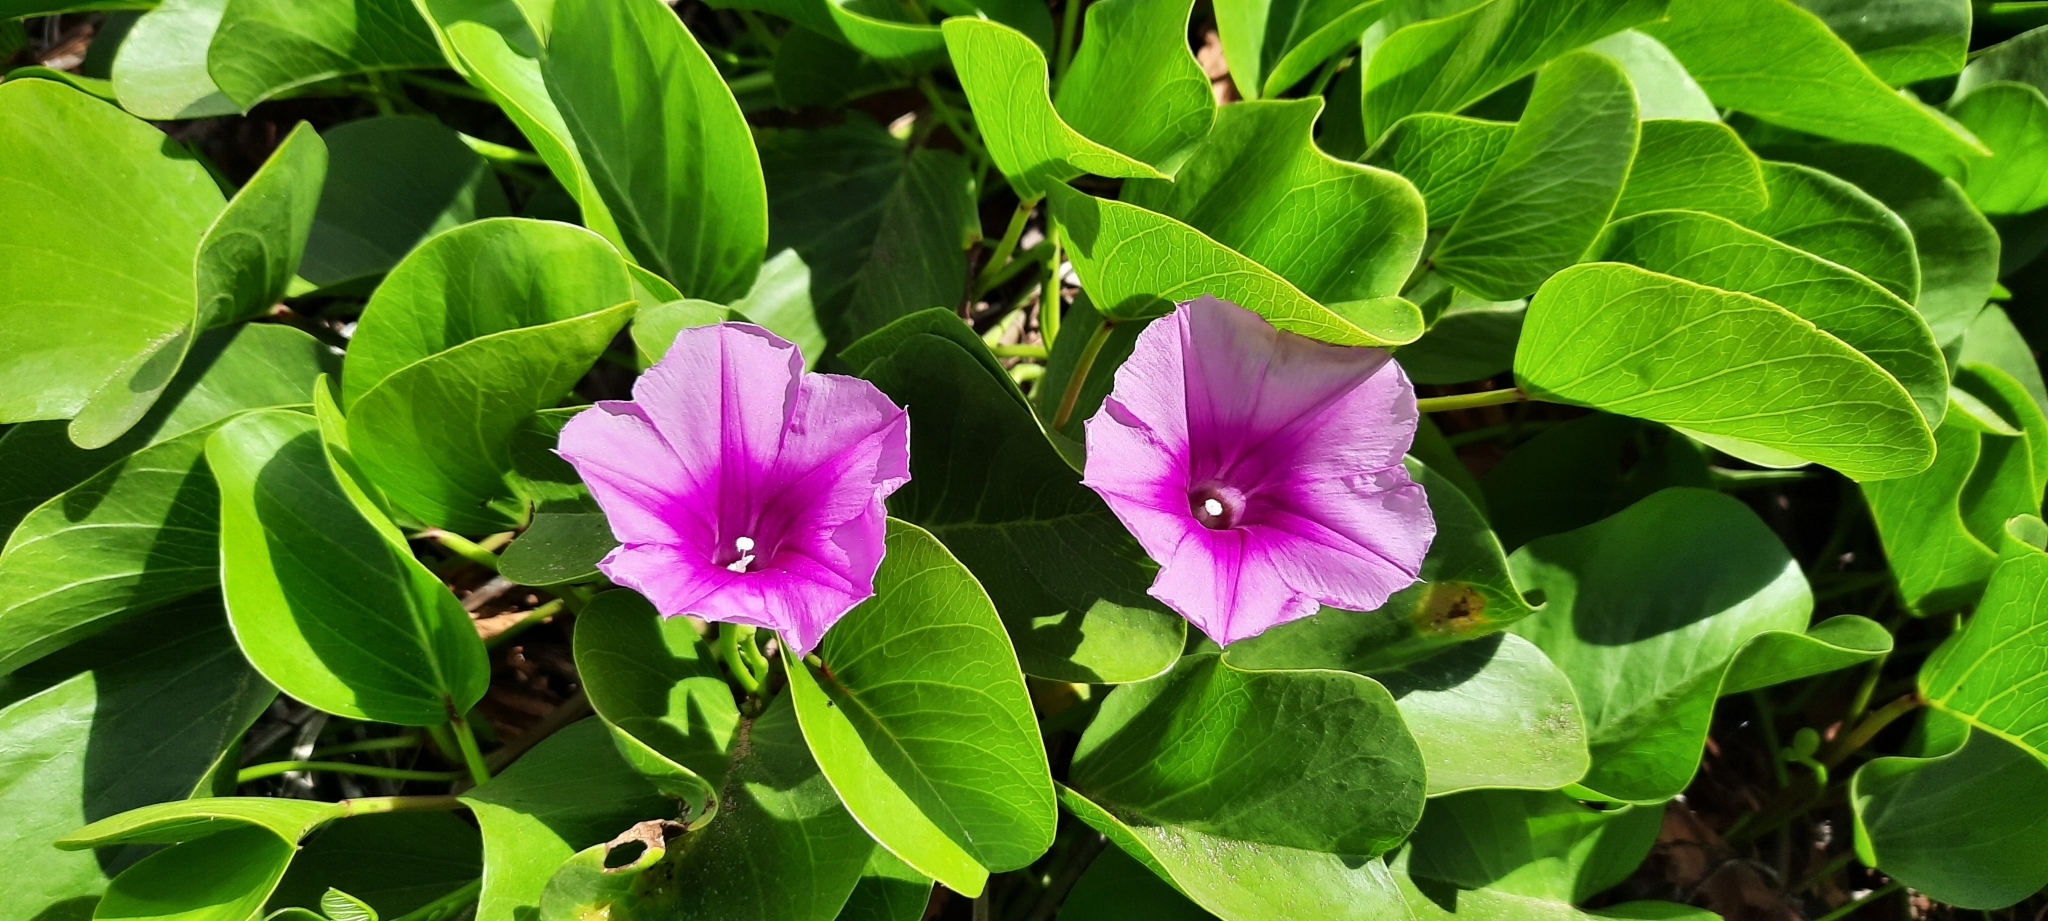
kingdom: Plantae
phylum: Tracheophyta
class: Magnoliopsida
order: Solanales
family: Convolvulaceae
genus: Ipomoea
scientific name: Ipomoea pes-caprae
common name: Beach morning glory
